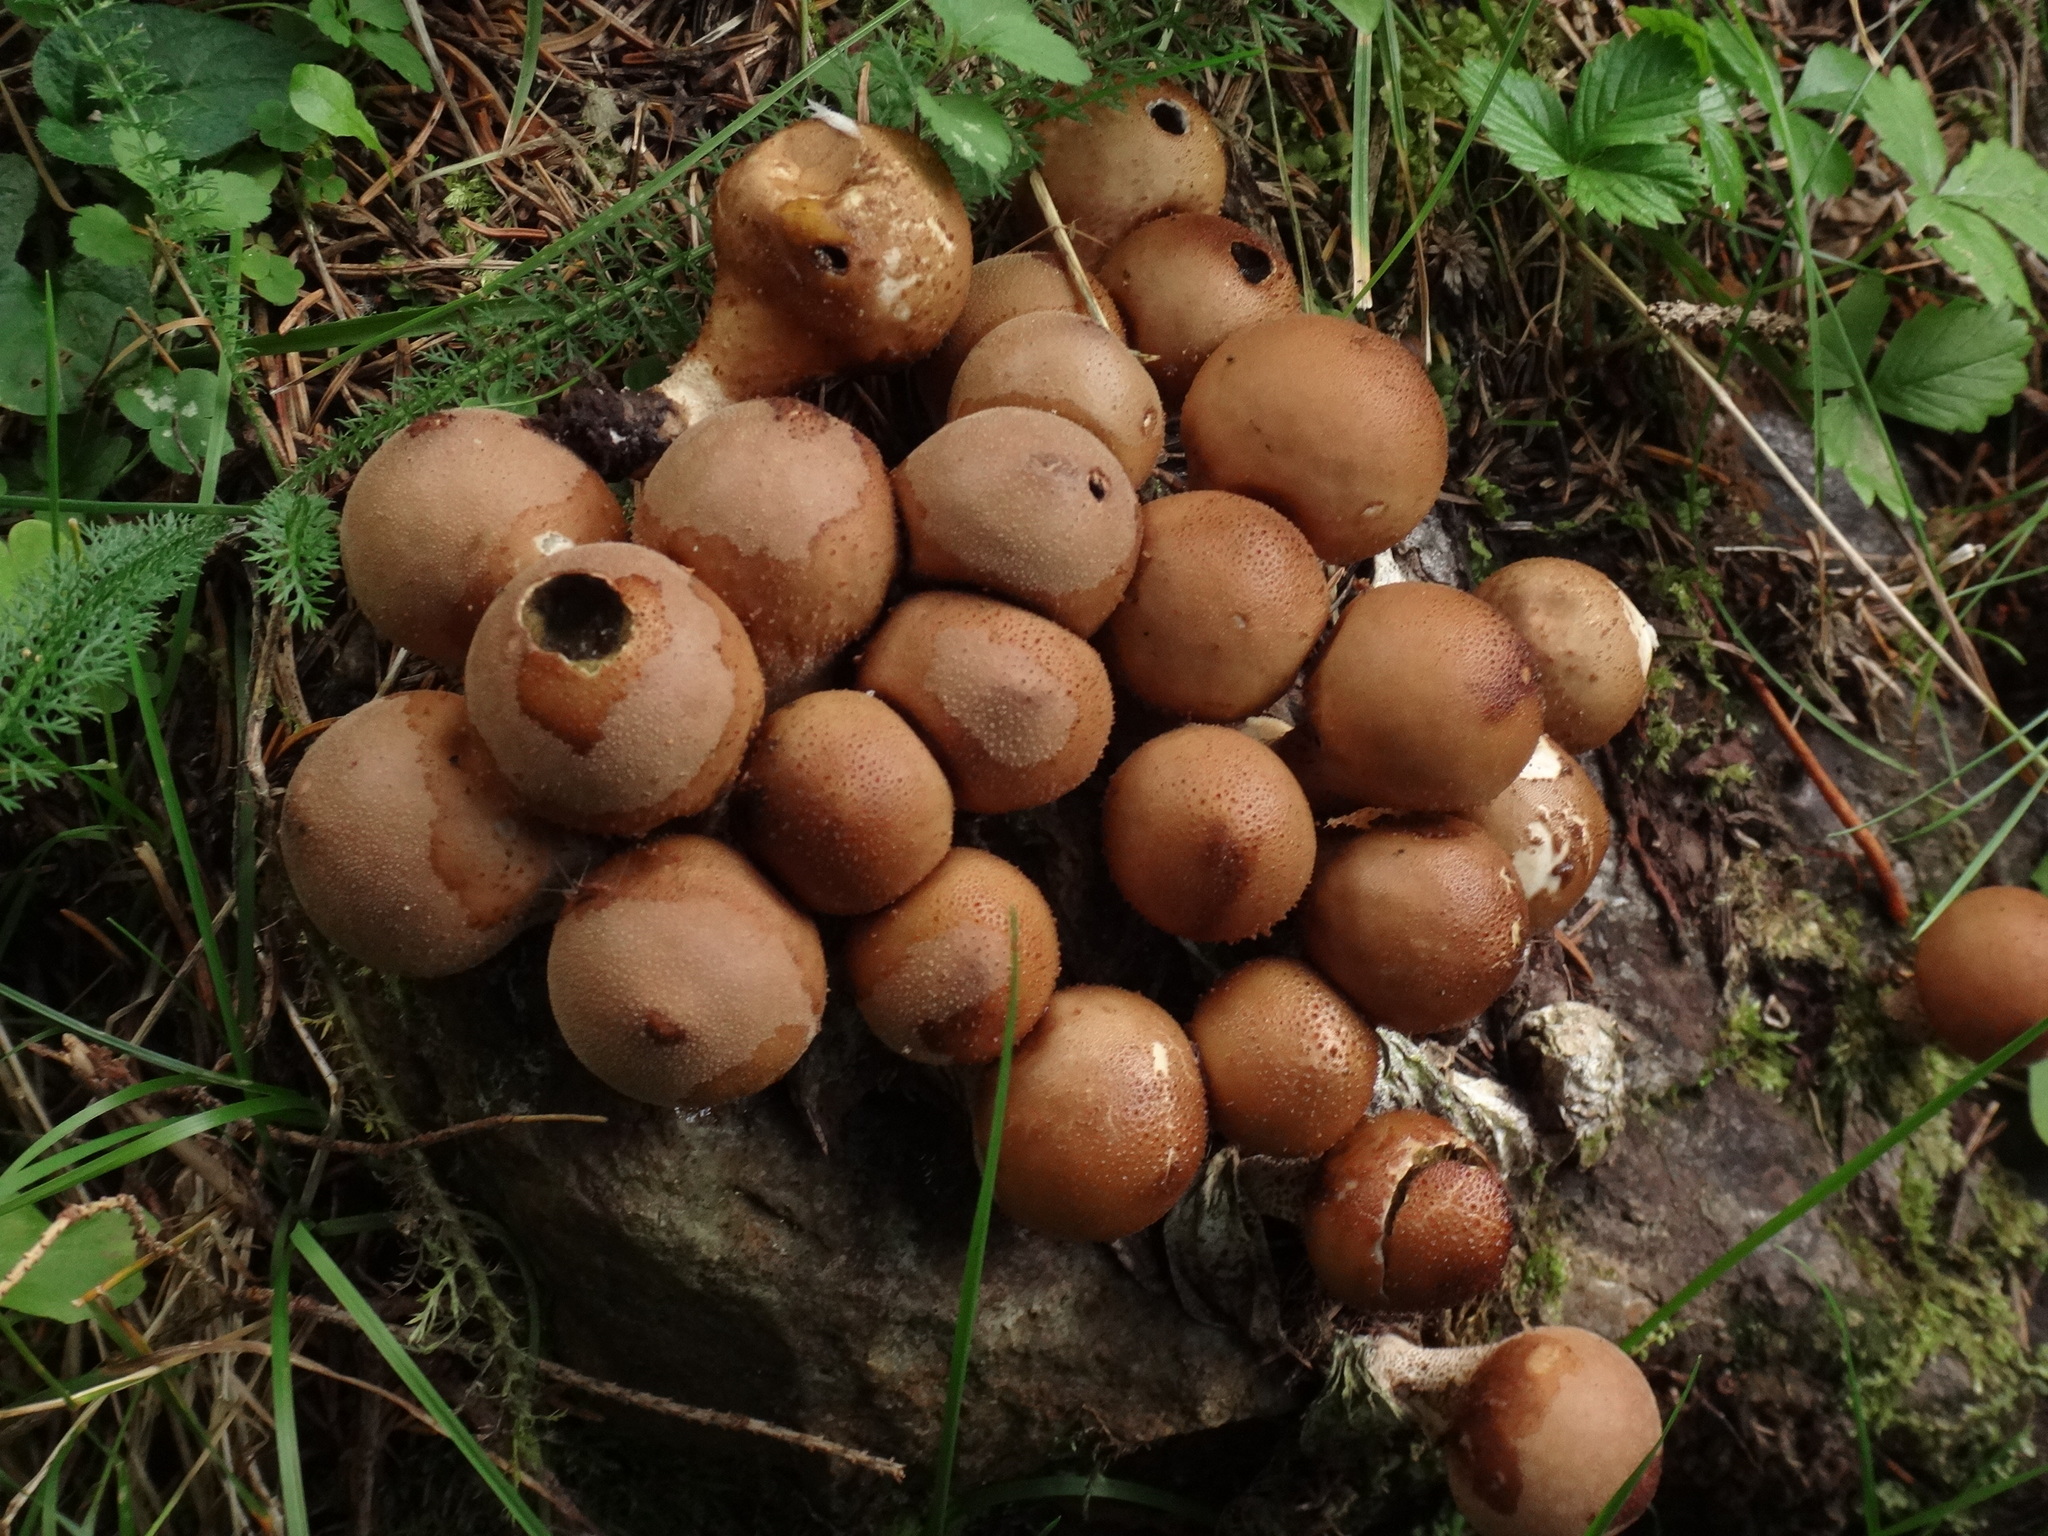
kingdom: Fungi
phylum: Basidiomycota
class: Agaricomycetes
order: Agaricales
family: Lycoperdaceae
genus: Apioperdon
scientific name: Apioperdon pyriforme
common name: Pear-shaped puffball
